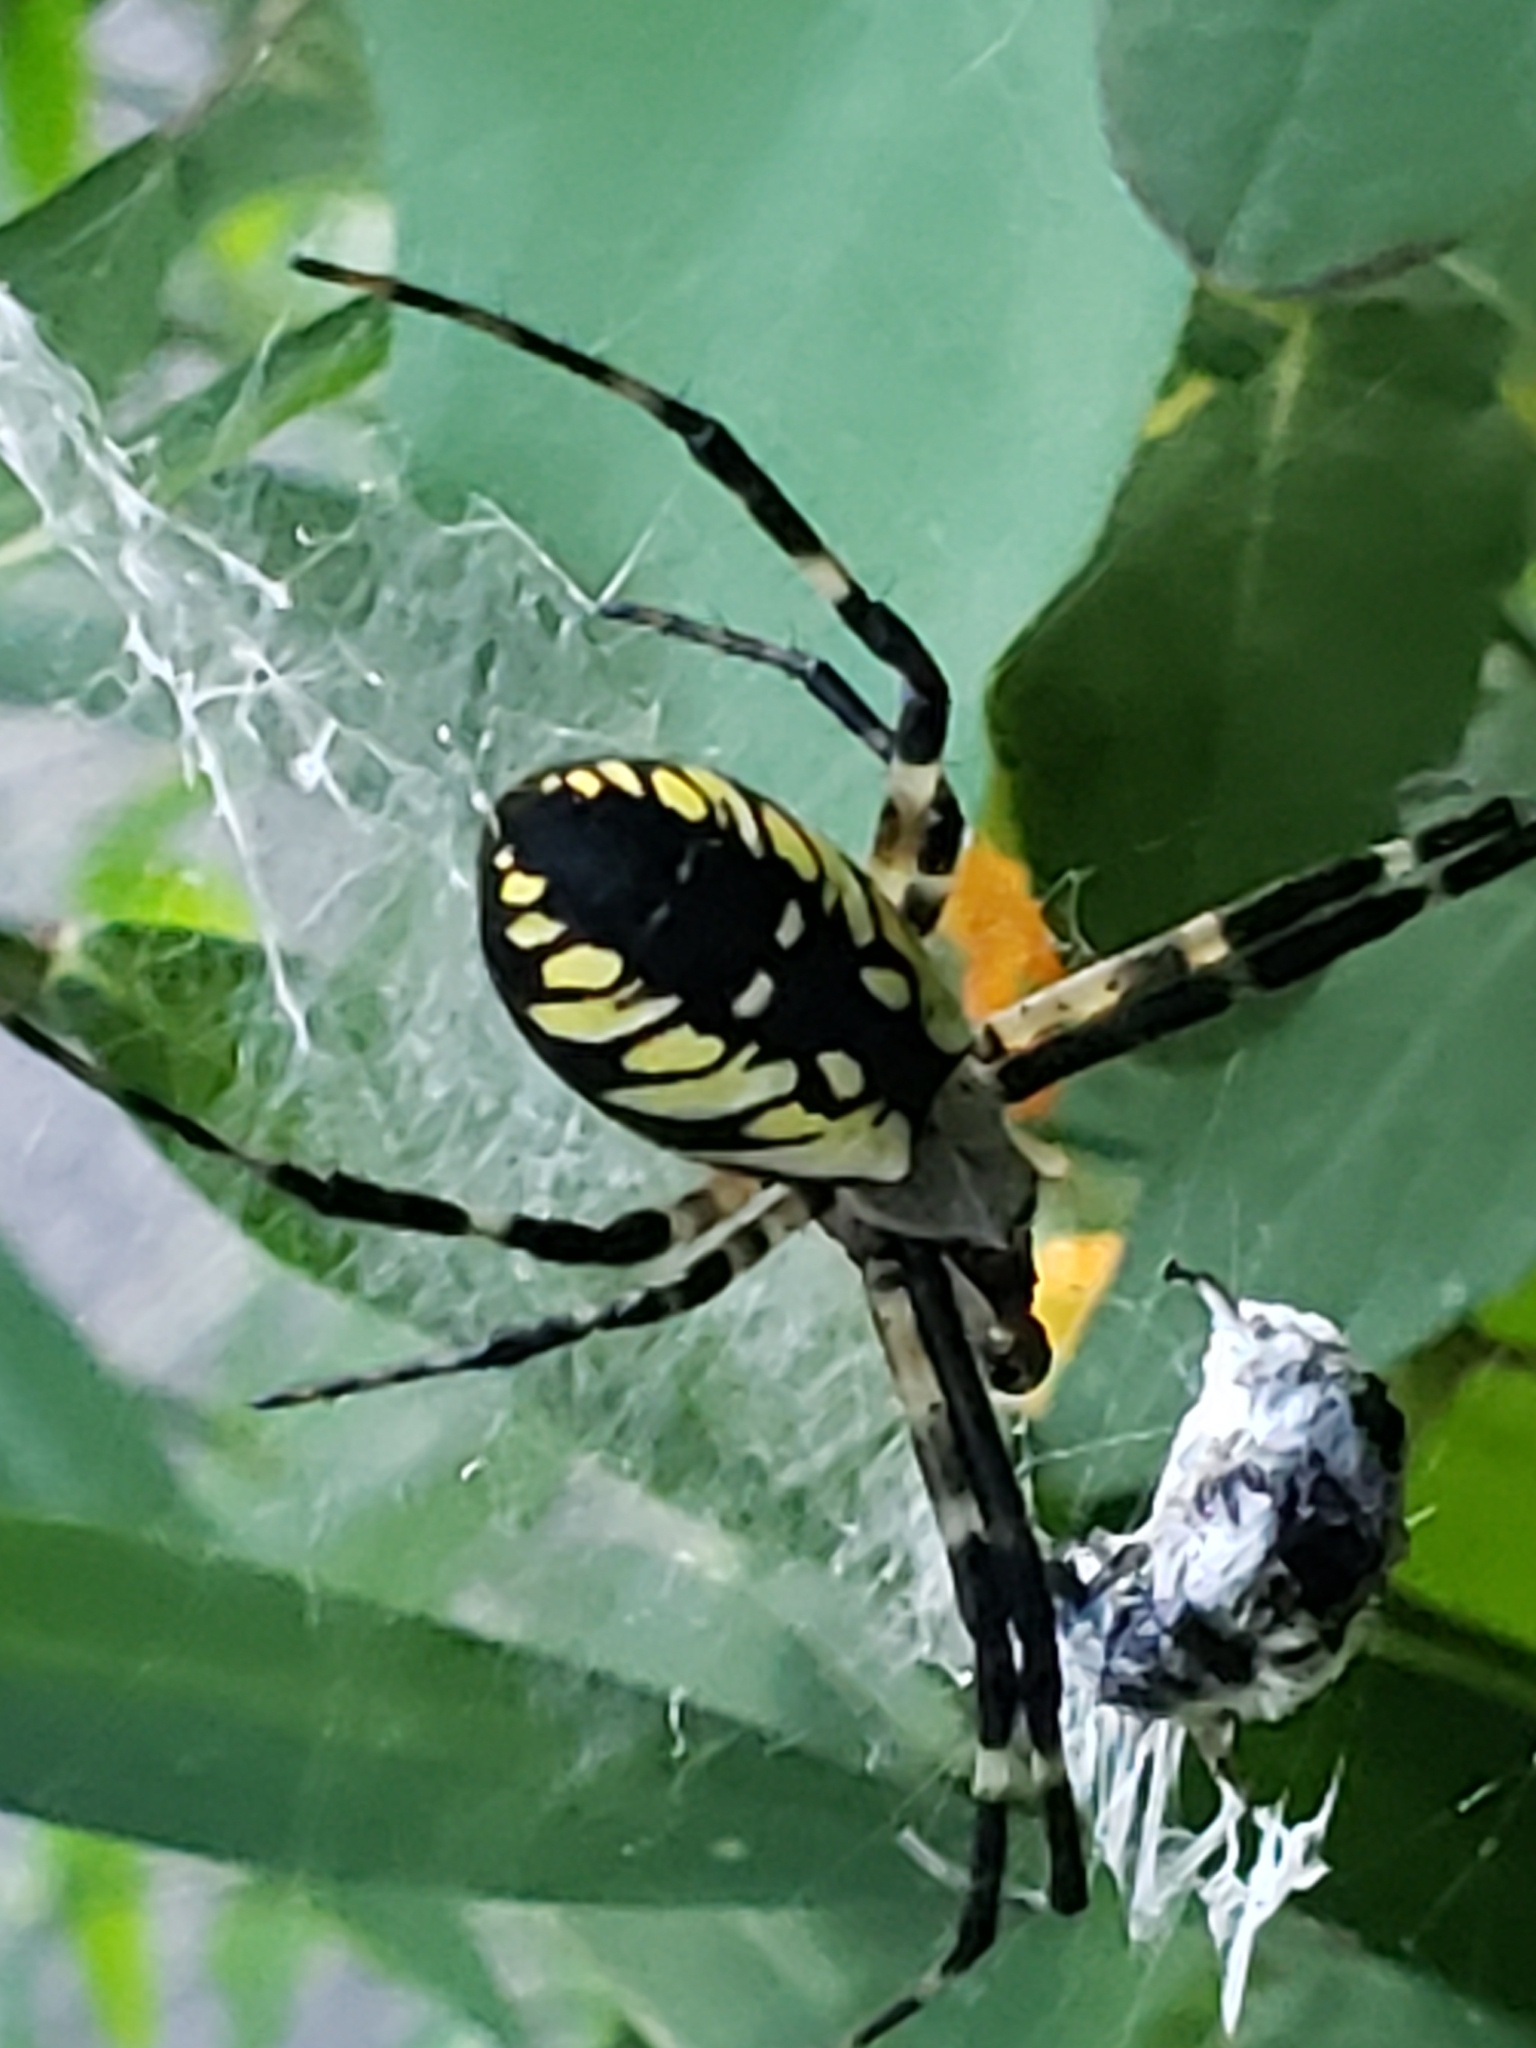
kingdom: Animalia
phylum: Arthropoda
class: Arachnida
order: Araneae
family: Araneidae
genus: Argiope
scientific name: Argiope aurantia
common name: Orb weavers
